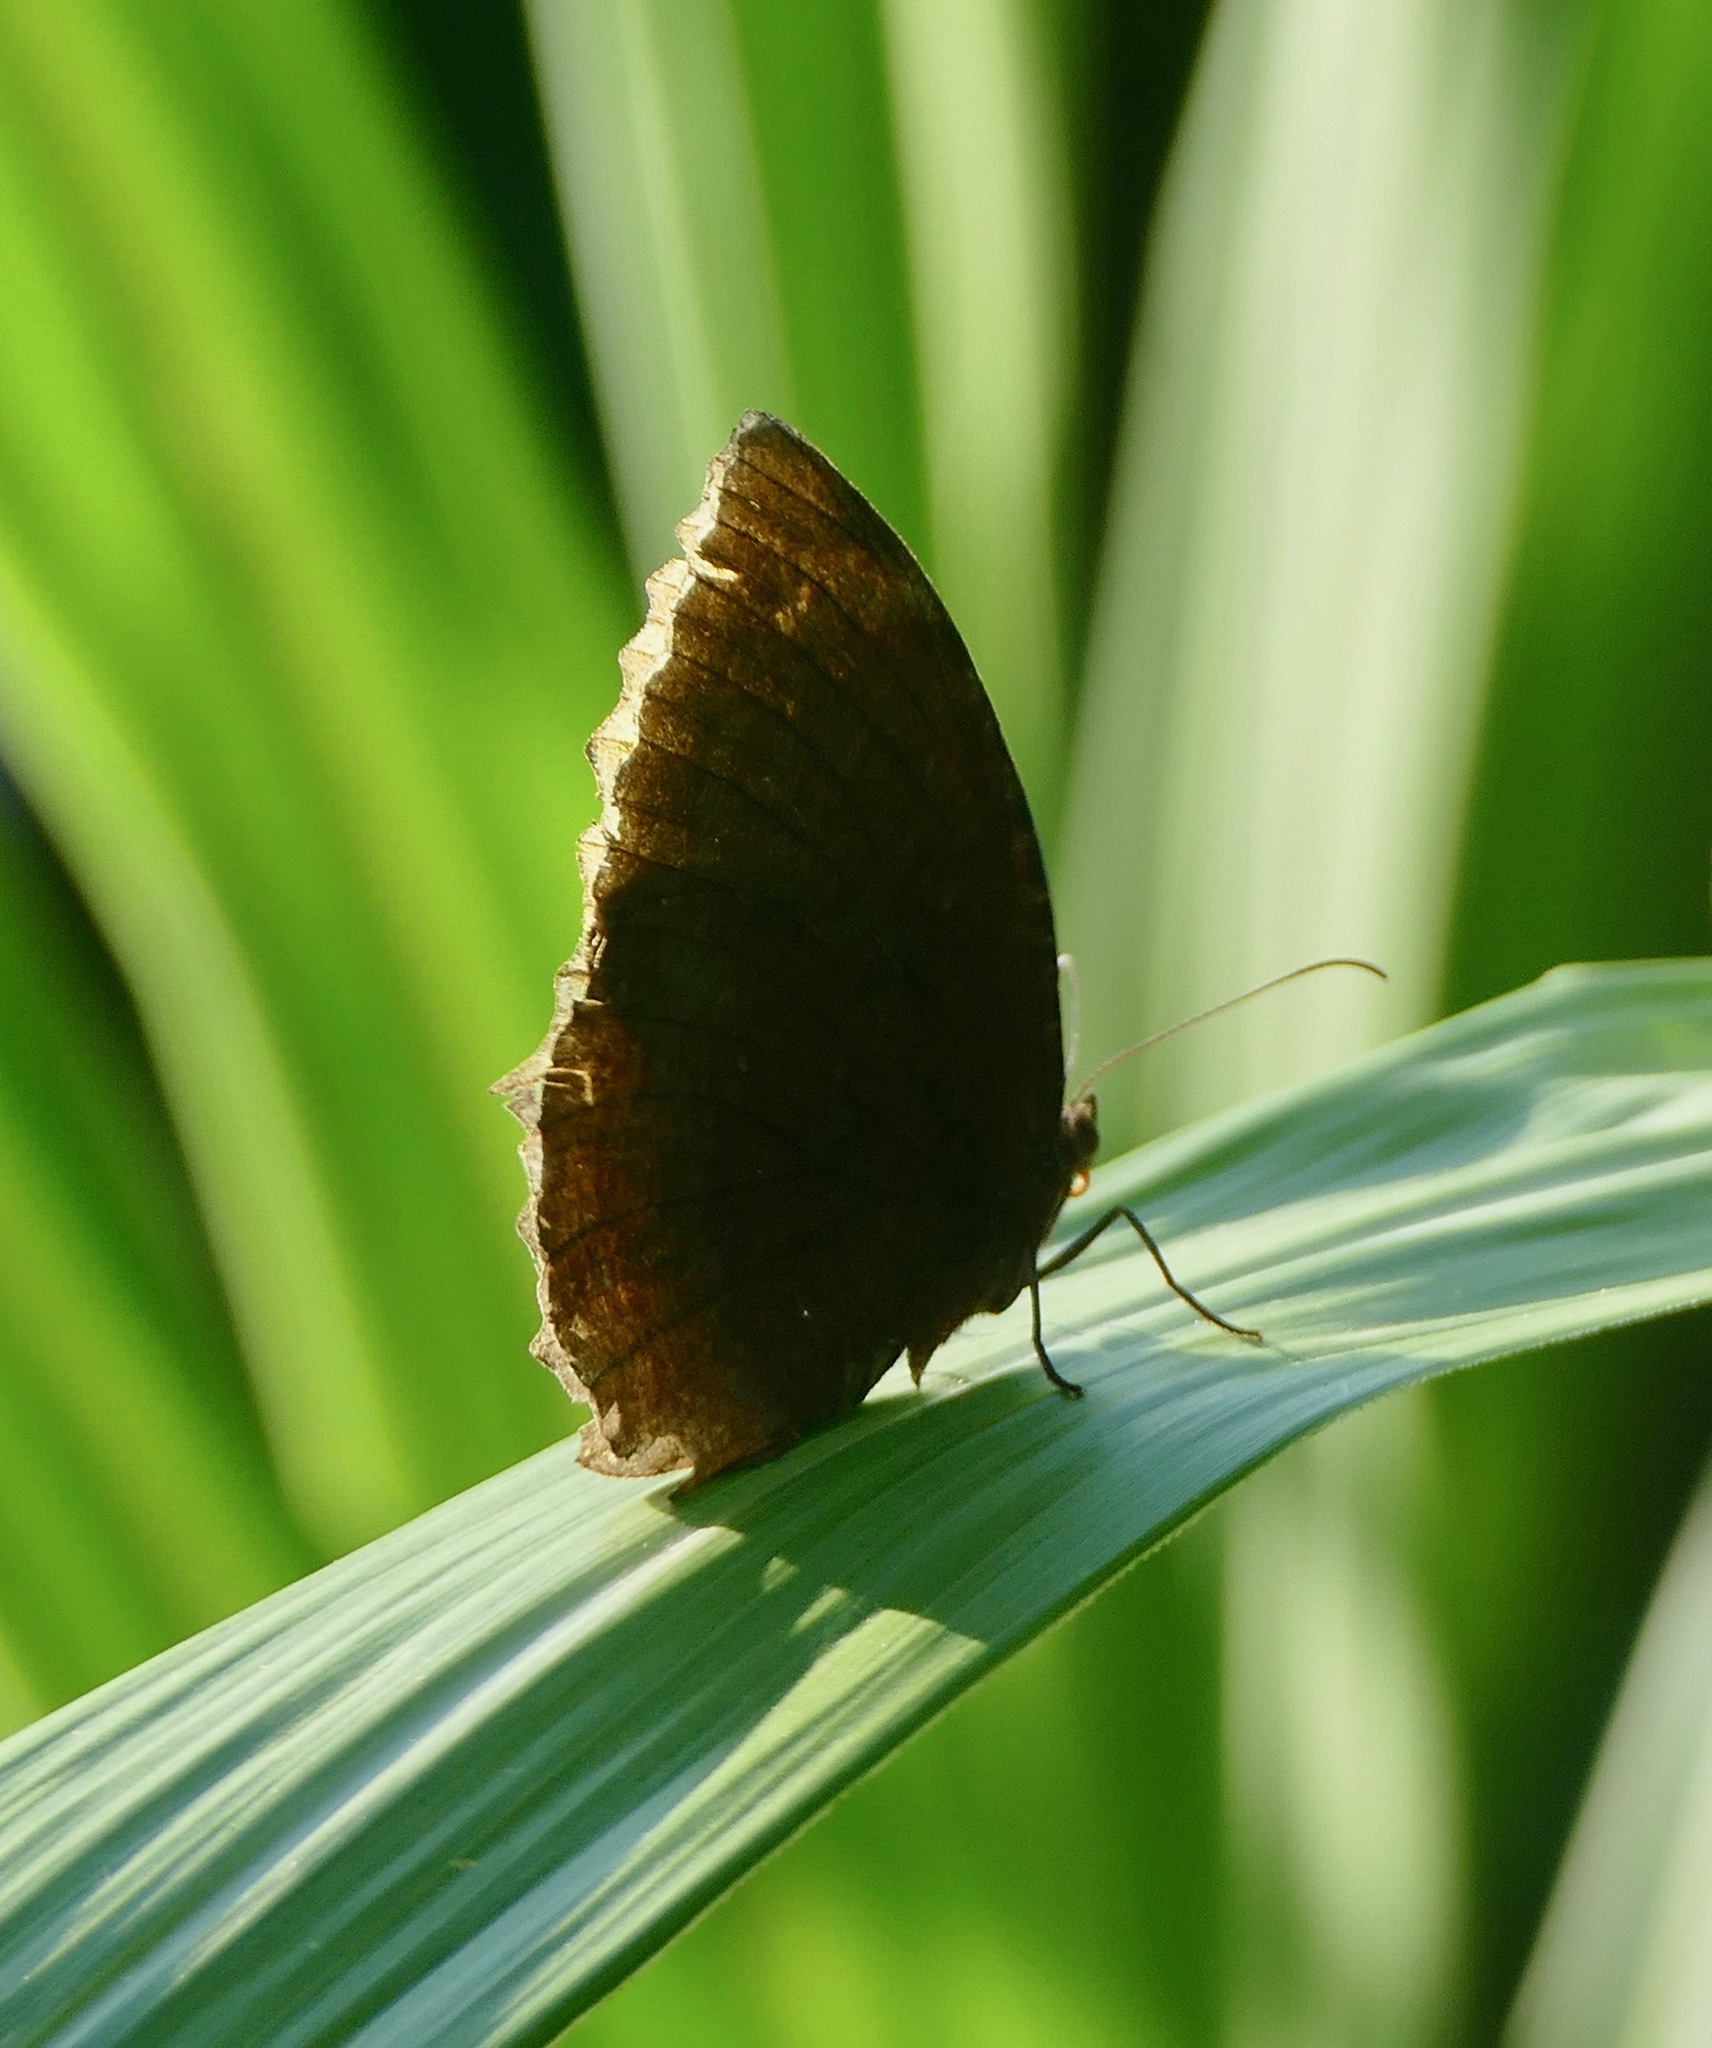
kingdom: Animalia
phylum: Arthropoda
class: Insecta
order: Lepidoptera
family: Nymphalidae
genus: Elymnias
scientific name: Elymnias hypermnestra
